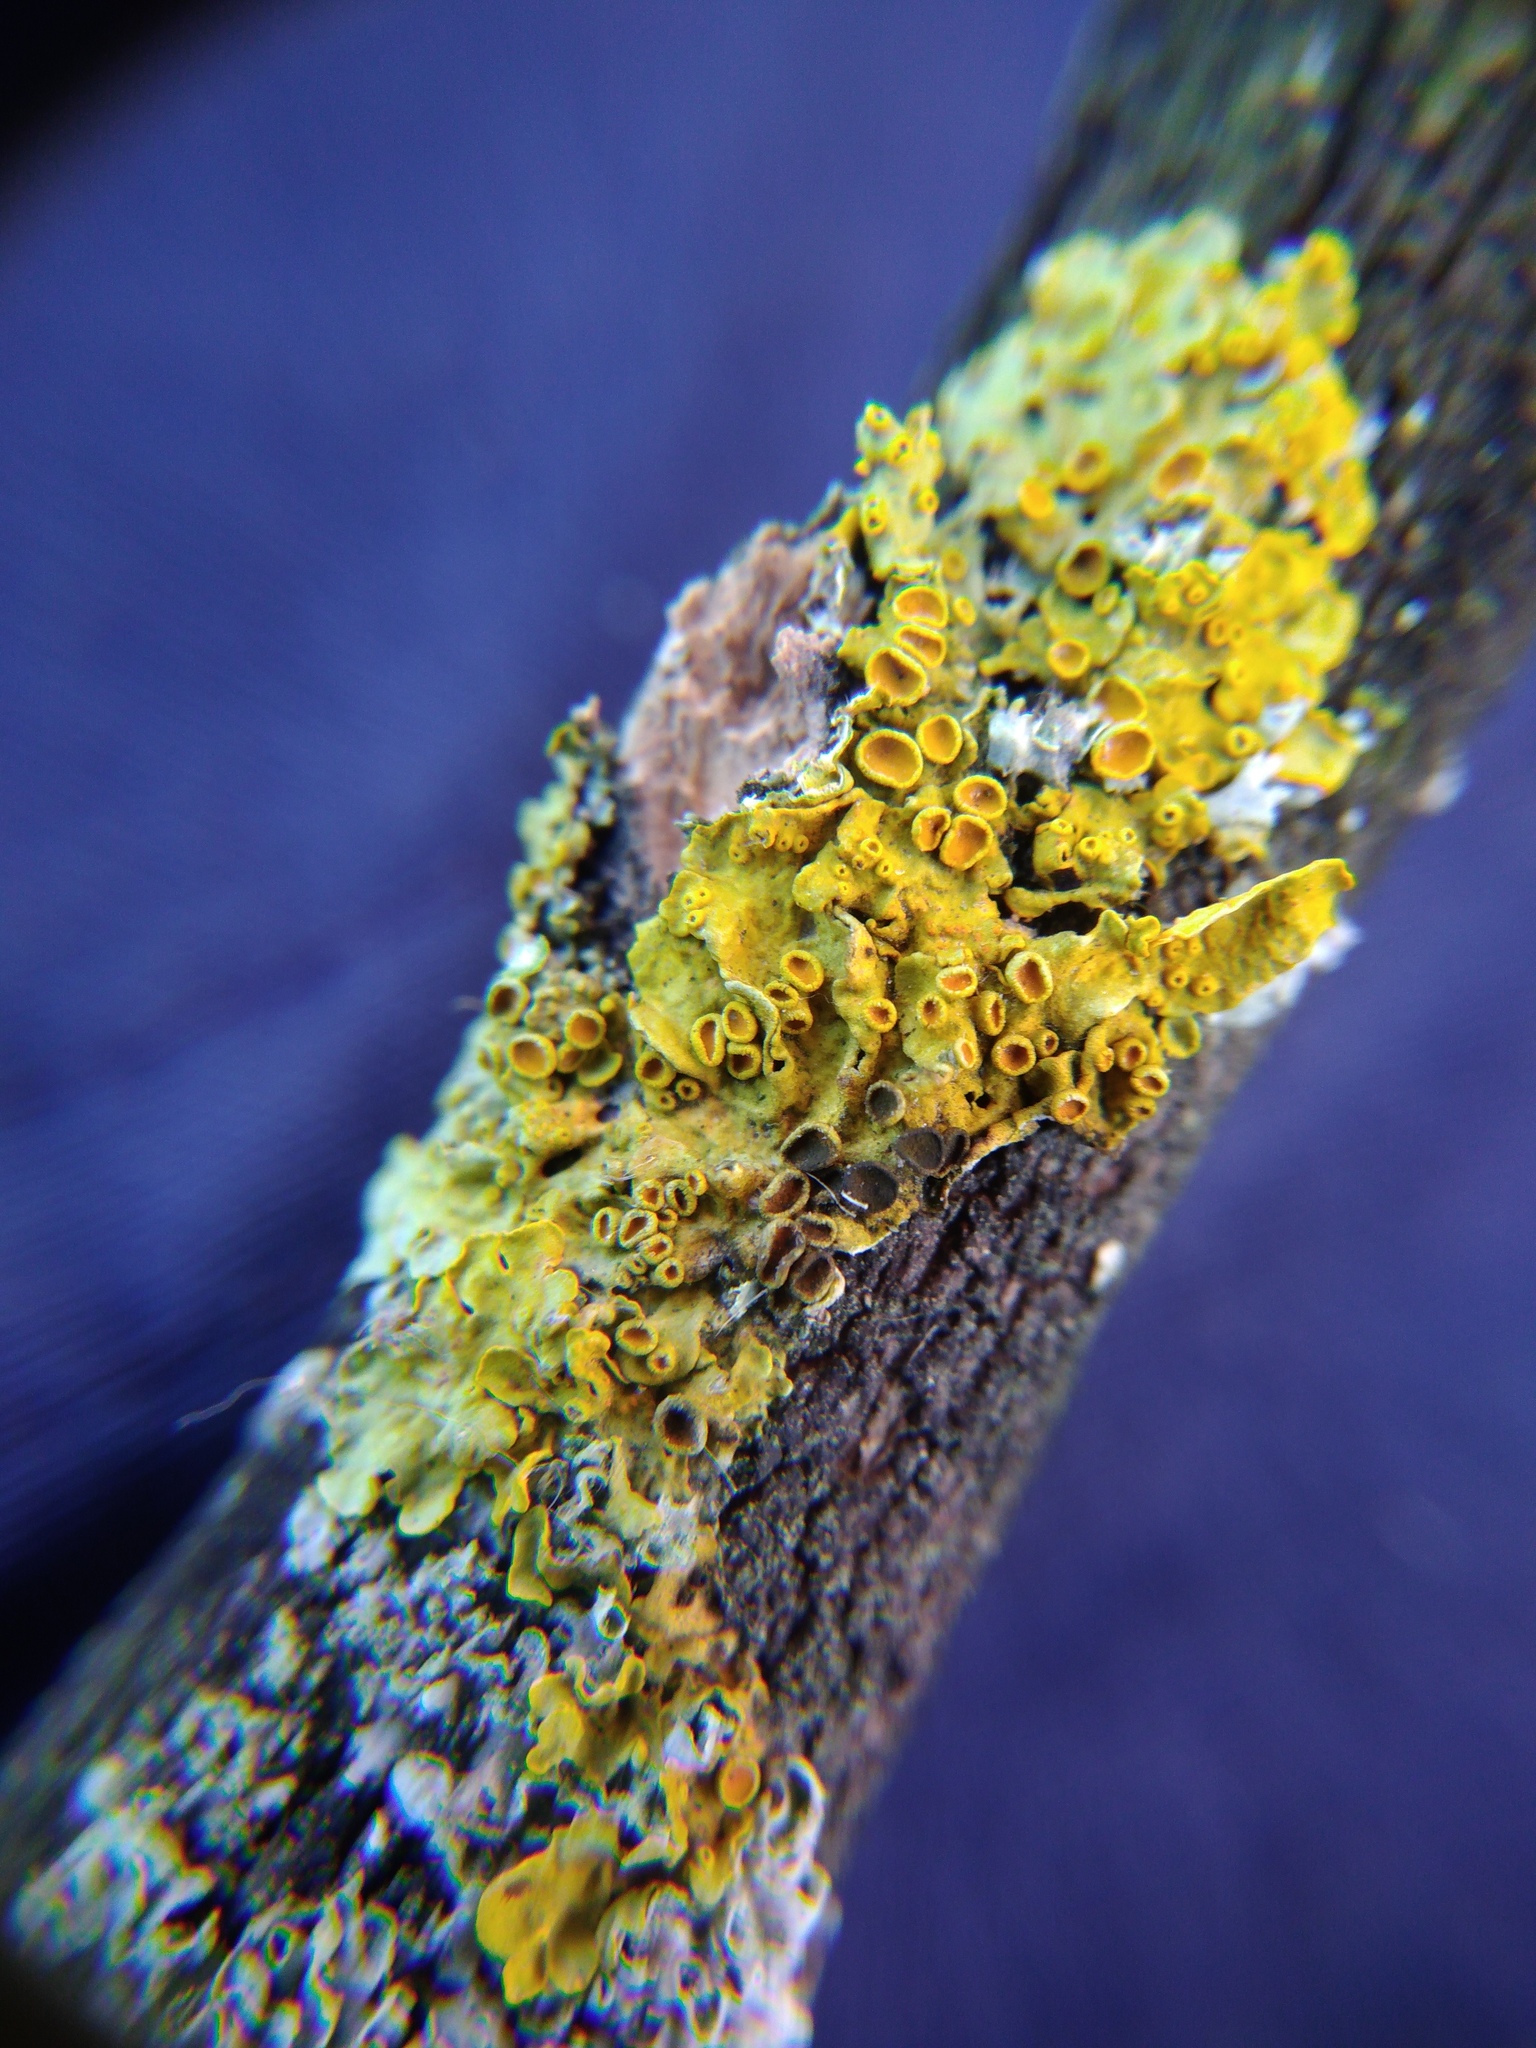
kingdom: Fungi
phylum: Ascomycota
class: Dothideomycetes
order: Mycosphaerellales
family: Teratosphaeriaceae
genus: Xanthoriicola
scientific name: Xanthoriicola physciae
